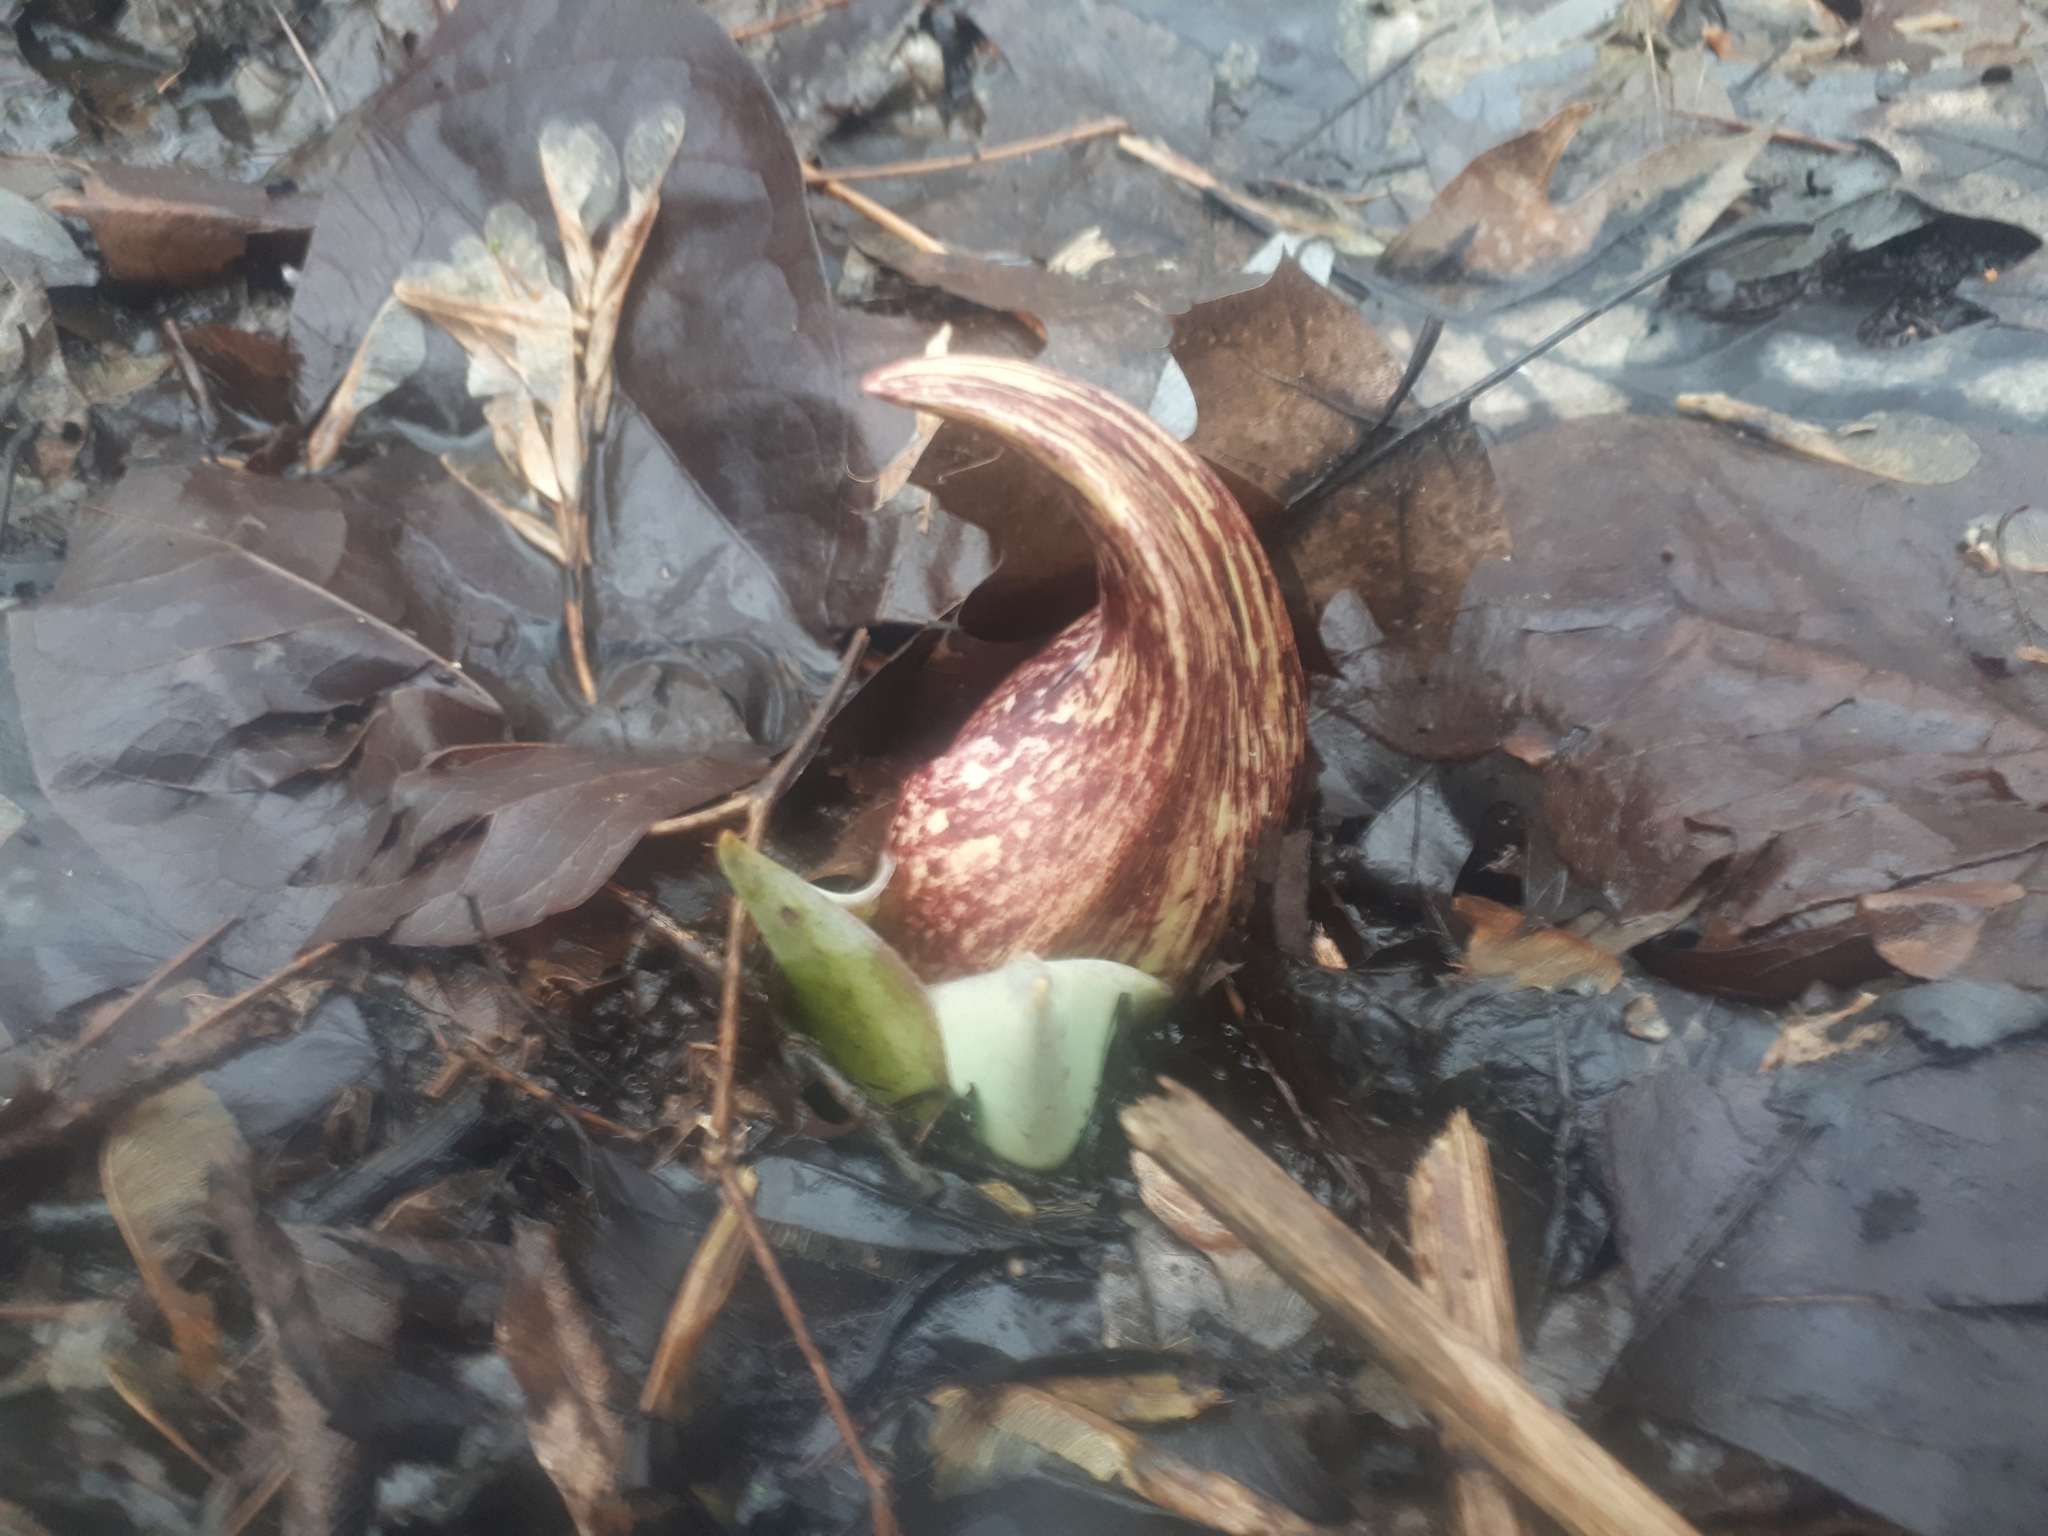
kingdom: Plantae
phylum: Tracheophyta
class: Liliopsida
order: Alismatales
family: Araceae
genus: Symplocarpus
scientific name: Symplocarpus foetidus
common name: Eastern skunk cabbage
